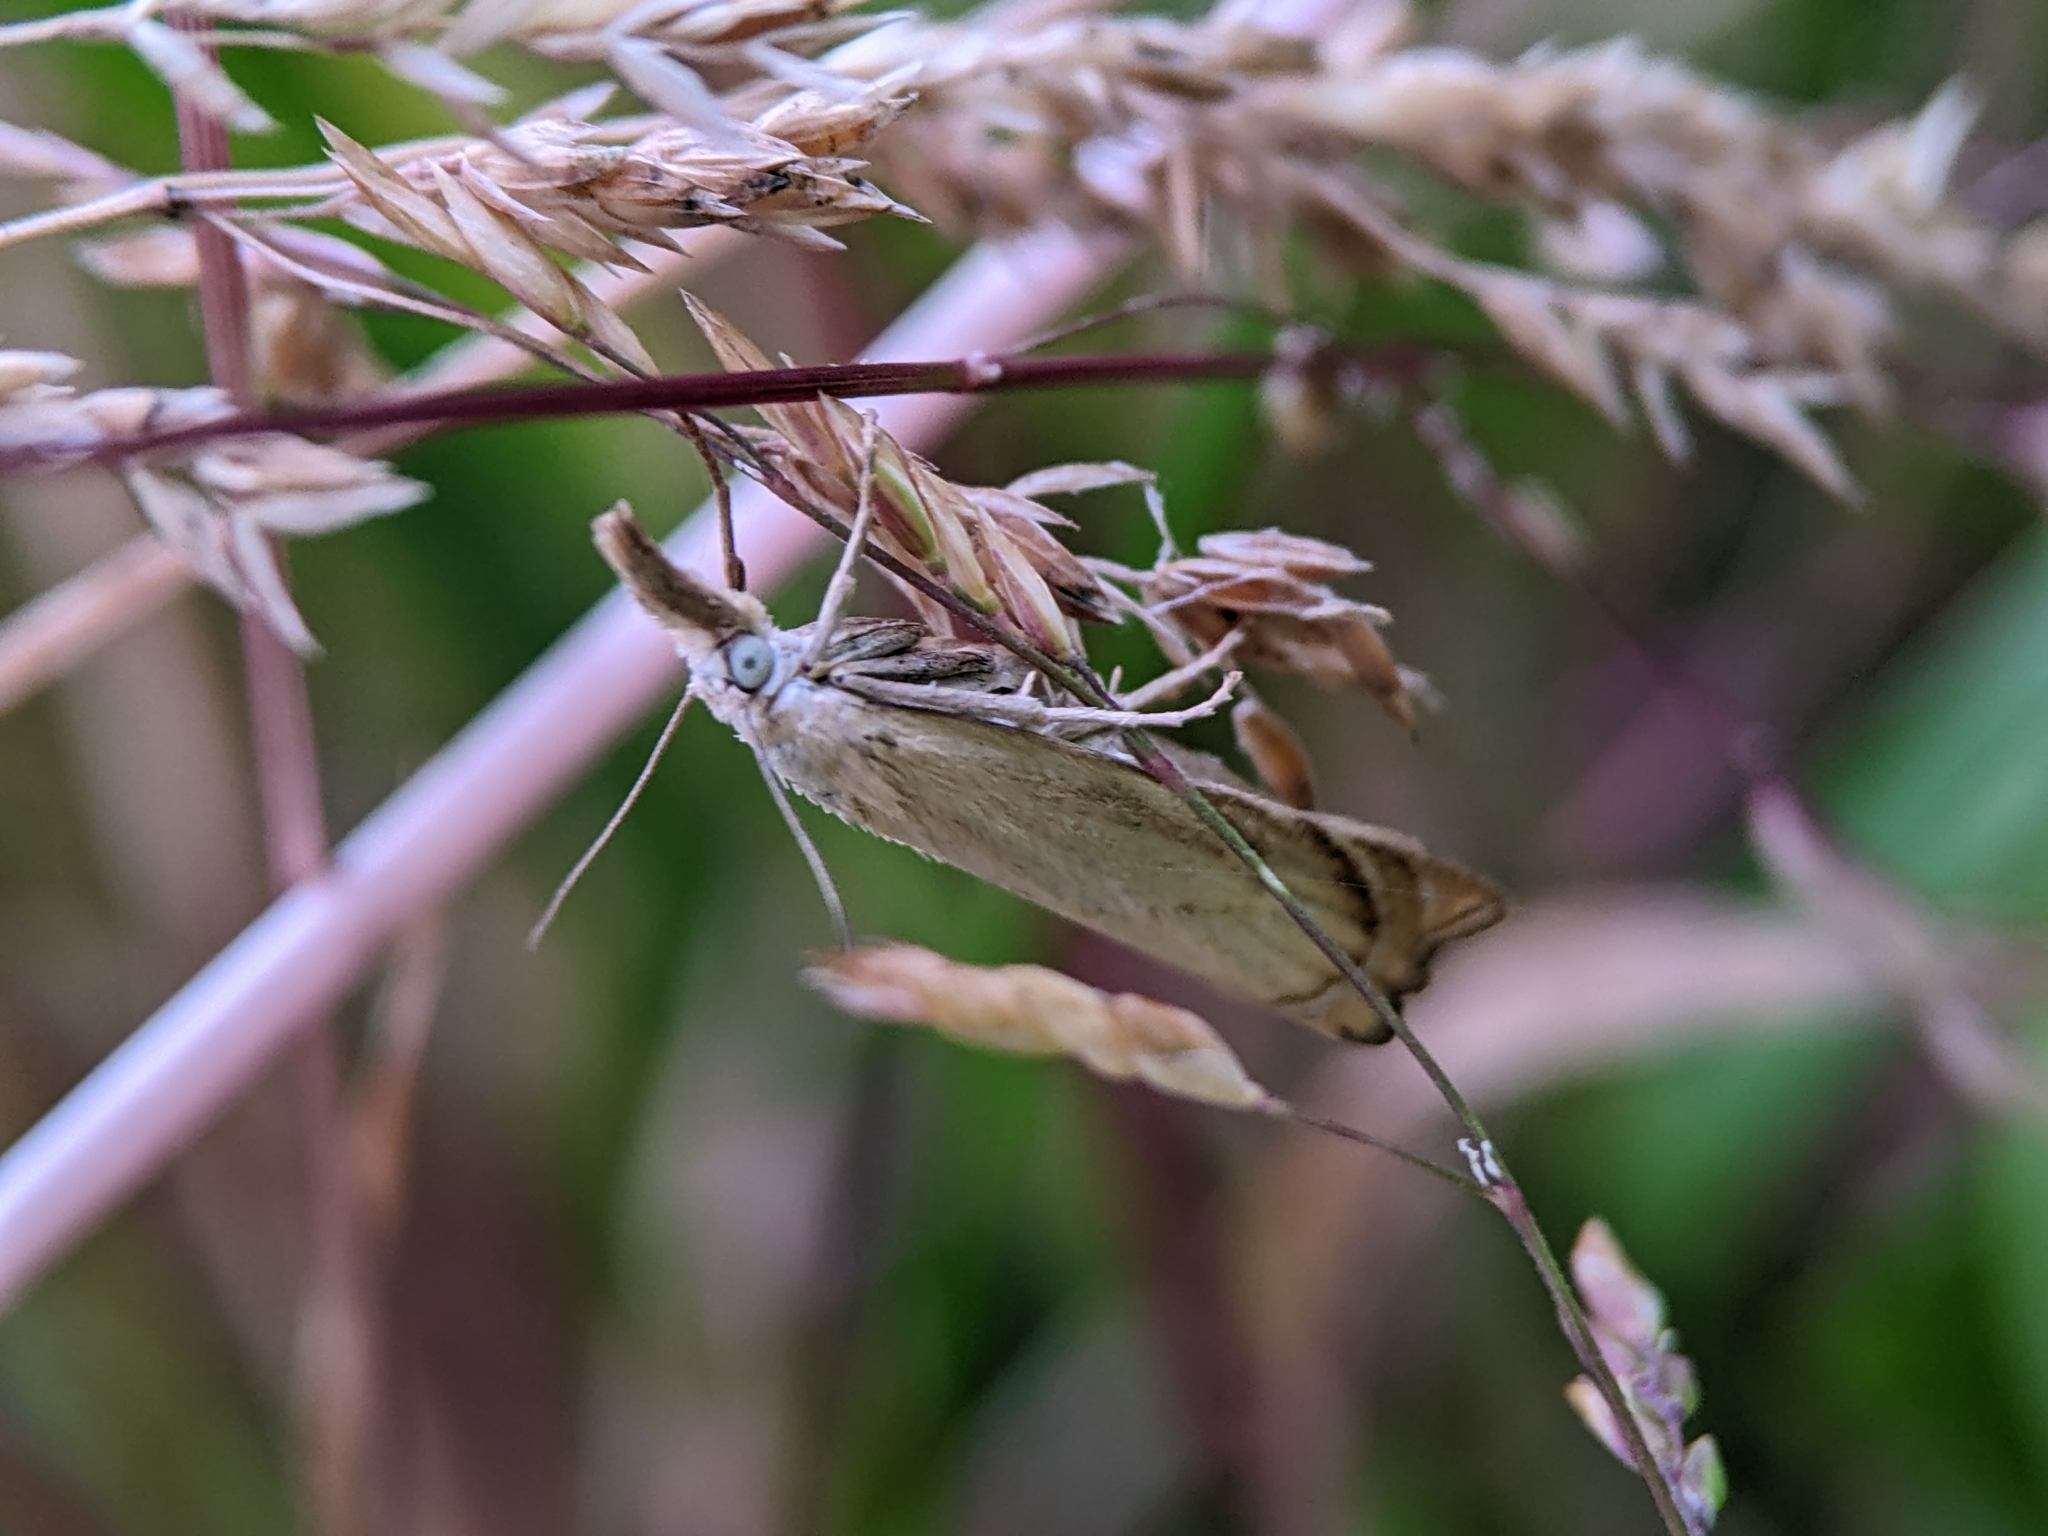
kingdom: Animalia
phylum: Arthropoda
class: Insecta
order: Lepidoptera
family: Crambidae
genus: Chrysoteuchia
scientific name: Chrysoteuchia culmella
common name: Garden grass-veneer
